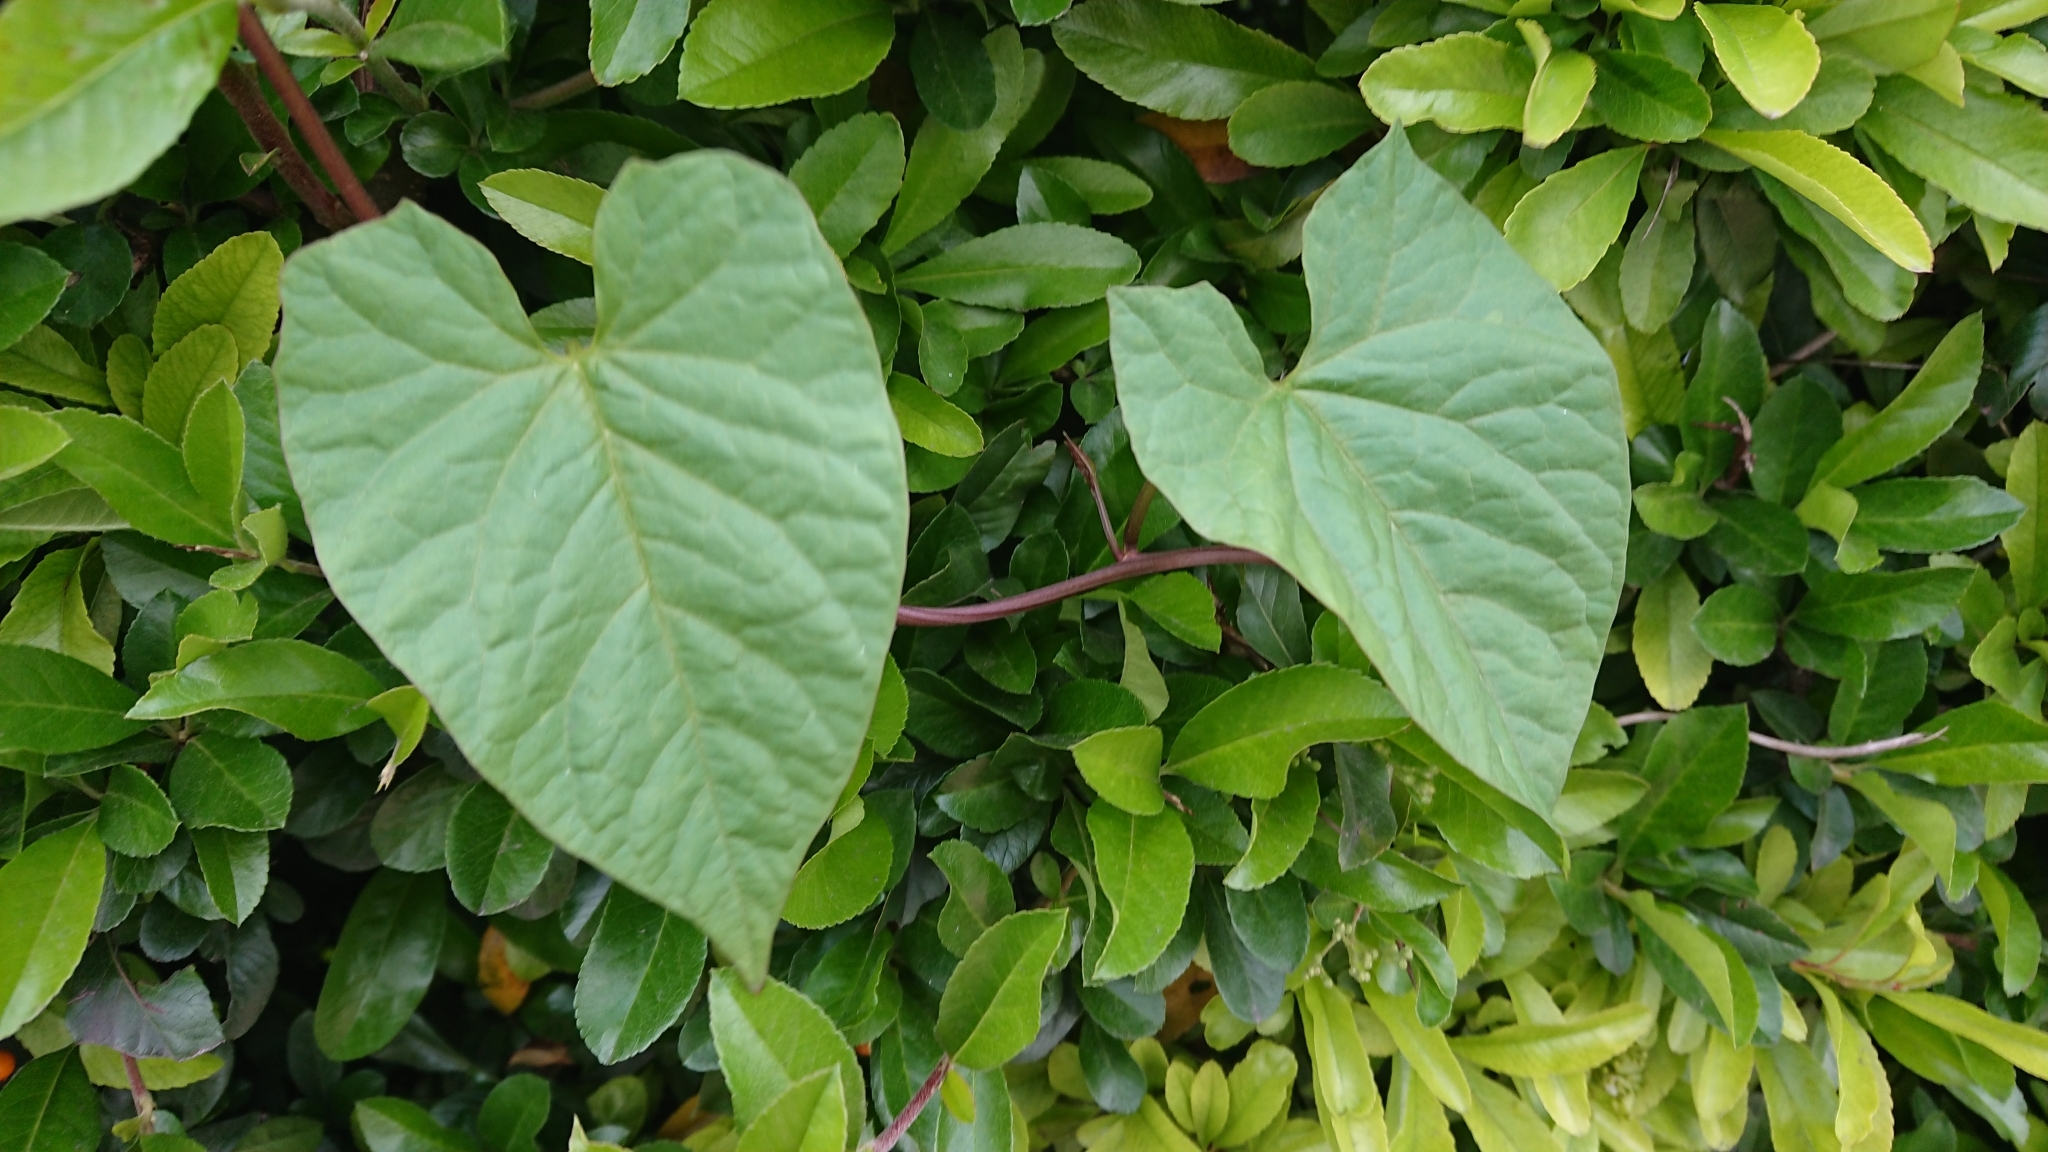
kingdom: Plantae
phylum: Tracheophyta
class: Magnoliopsida
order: Solanales
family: Convolvulaceae
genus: Calystegia
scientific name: Calystegia
